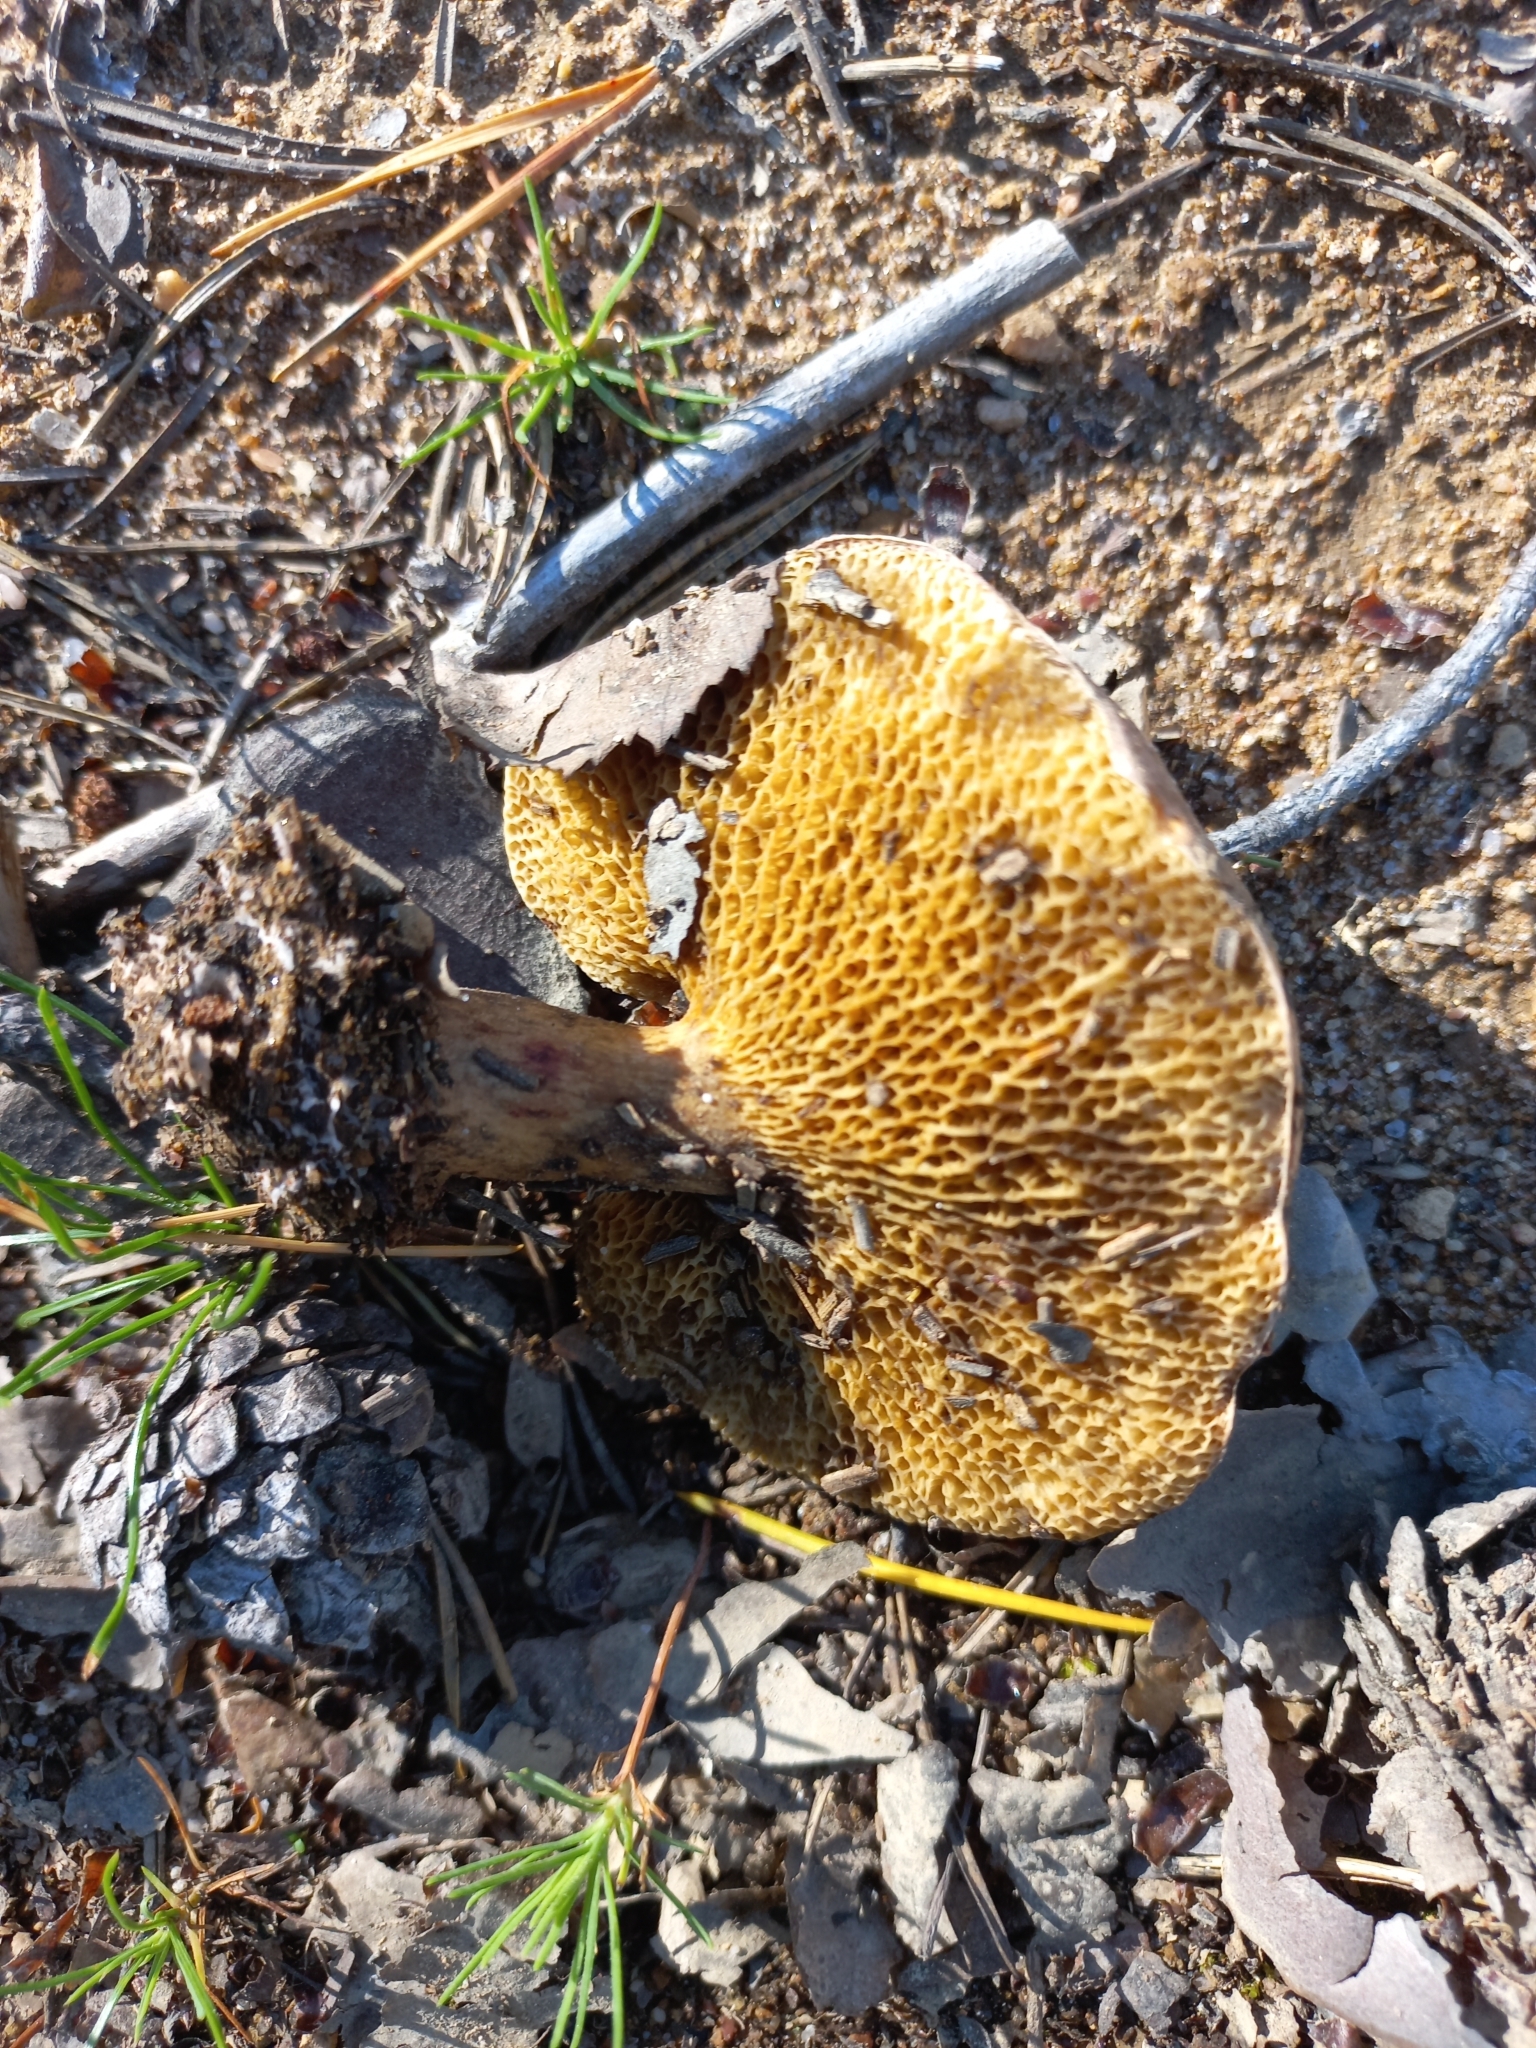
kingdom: Fungi
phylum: Basidiomycota
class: Agaricomycetes
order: Boletales
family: Suillaceae
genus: Suillus
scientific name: Suillus bovinus
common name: Bovine bolete
